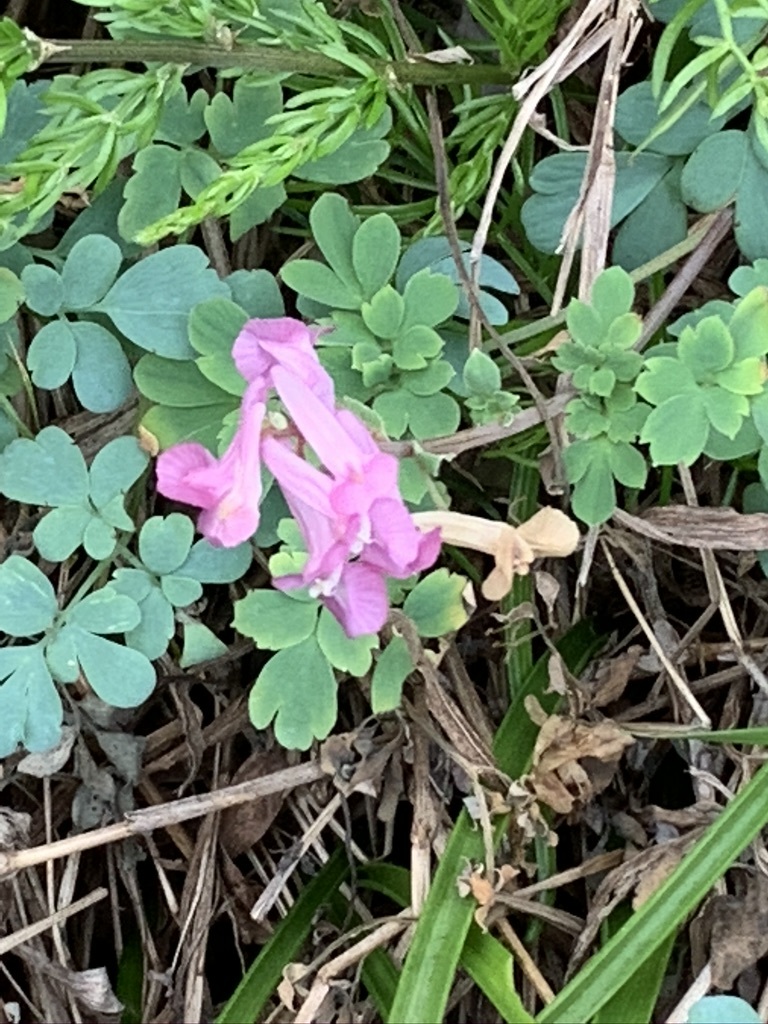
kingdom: Plantae
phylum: Tracheophyta
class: Magnoliopsida
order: Ranunculales
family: Papaveraceae
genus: Corydalis
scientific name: Corydalis decumbens
